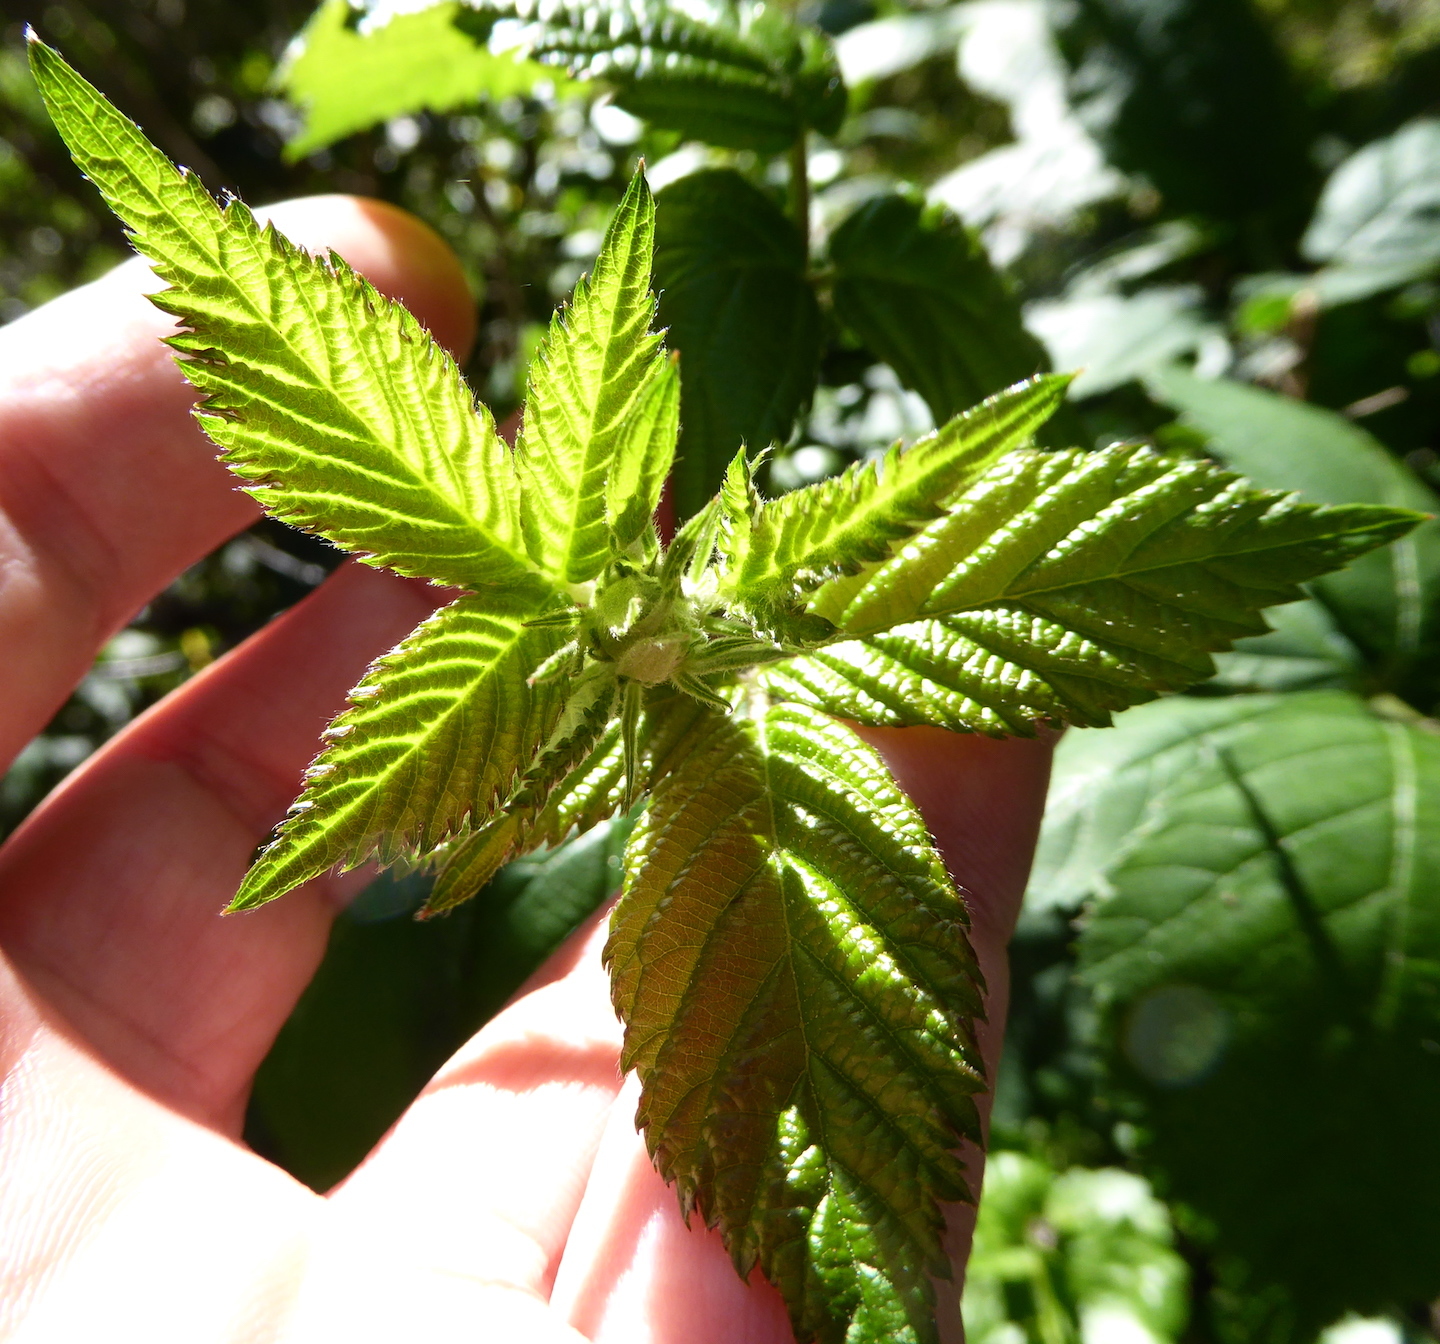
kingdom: Plantae
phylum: Tracheophyta
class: Magnoliopsida
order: Rosales
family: Rosaceae
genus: Rubus
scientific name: Rubus armeniacus
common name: Himalayan blackberry
